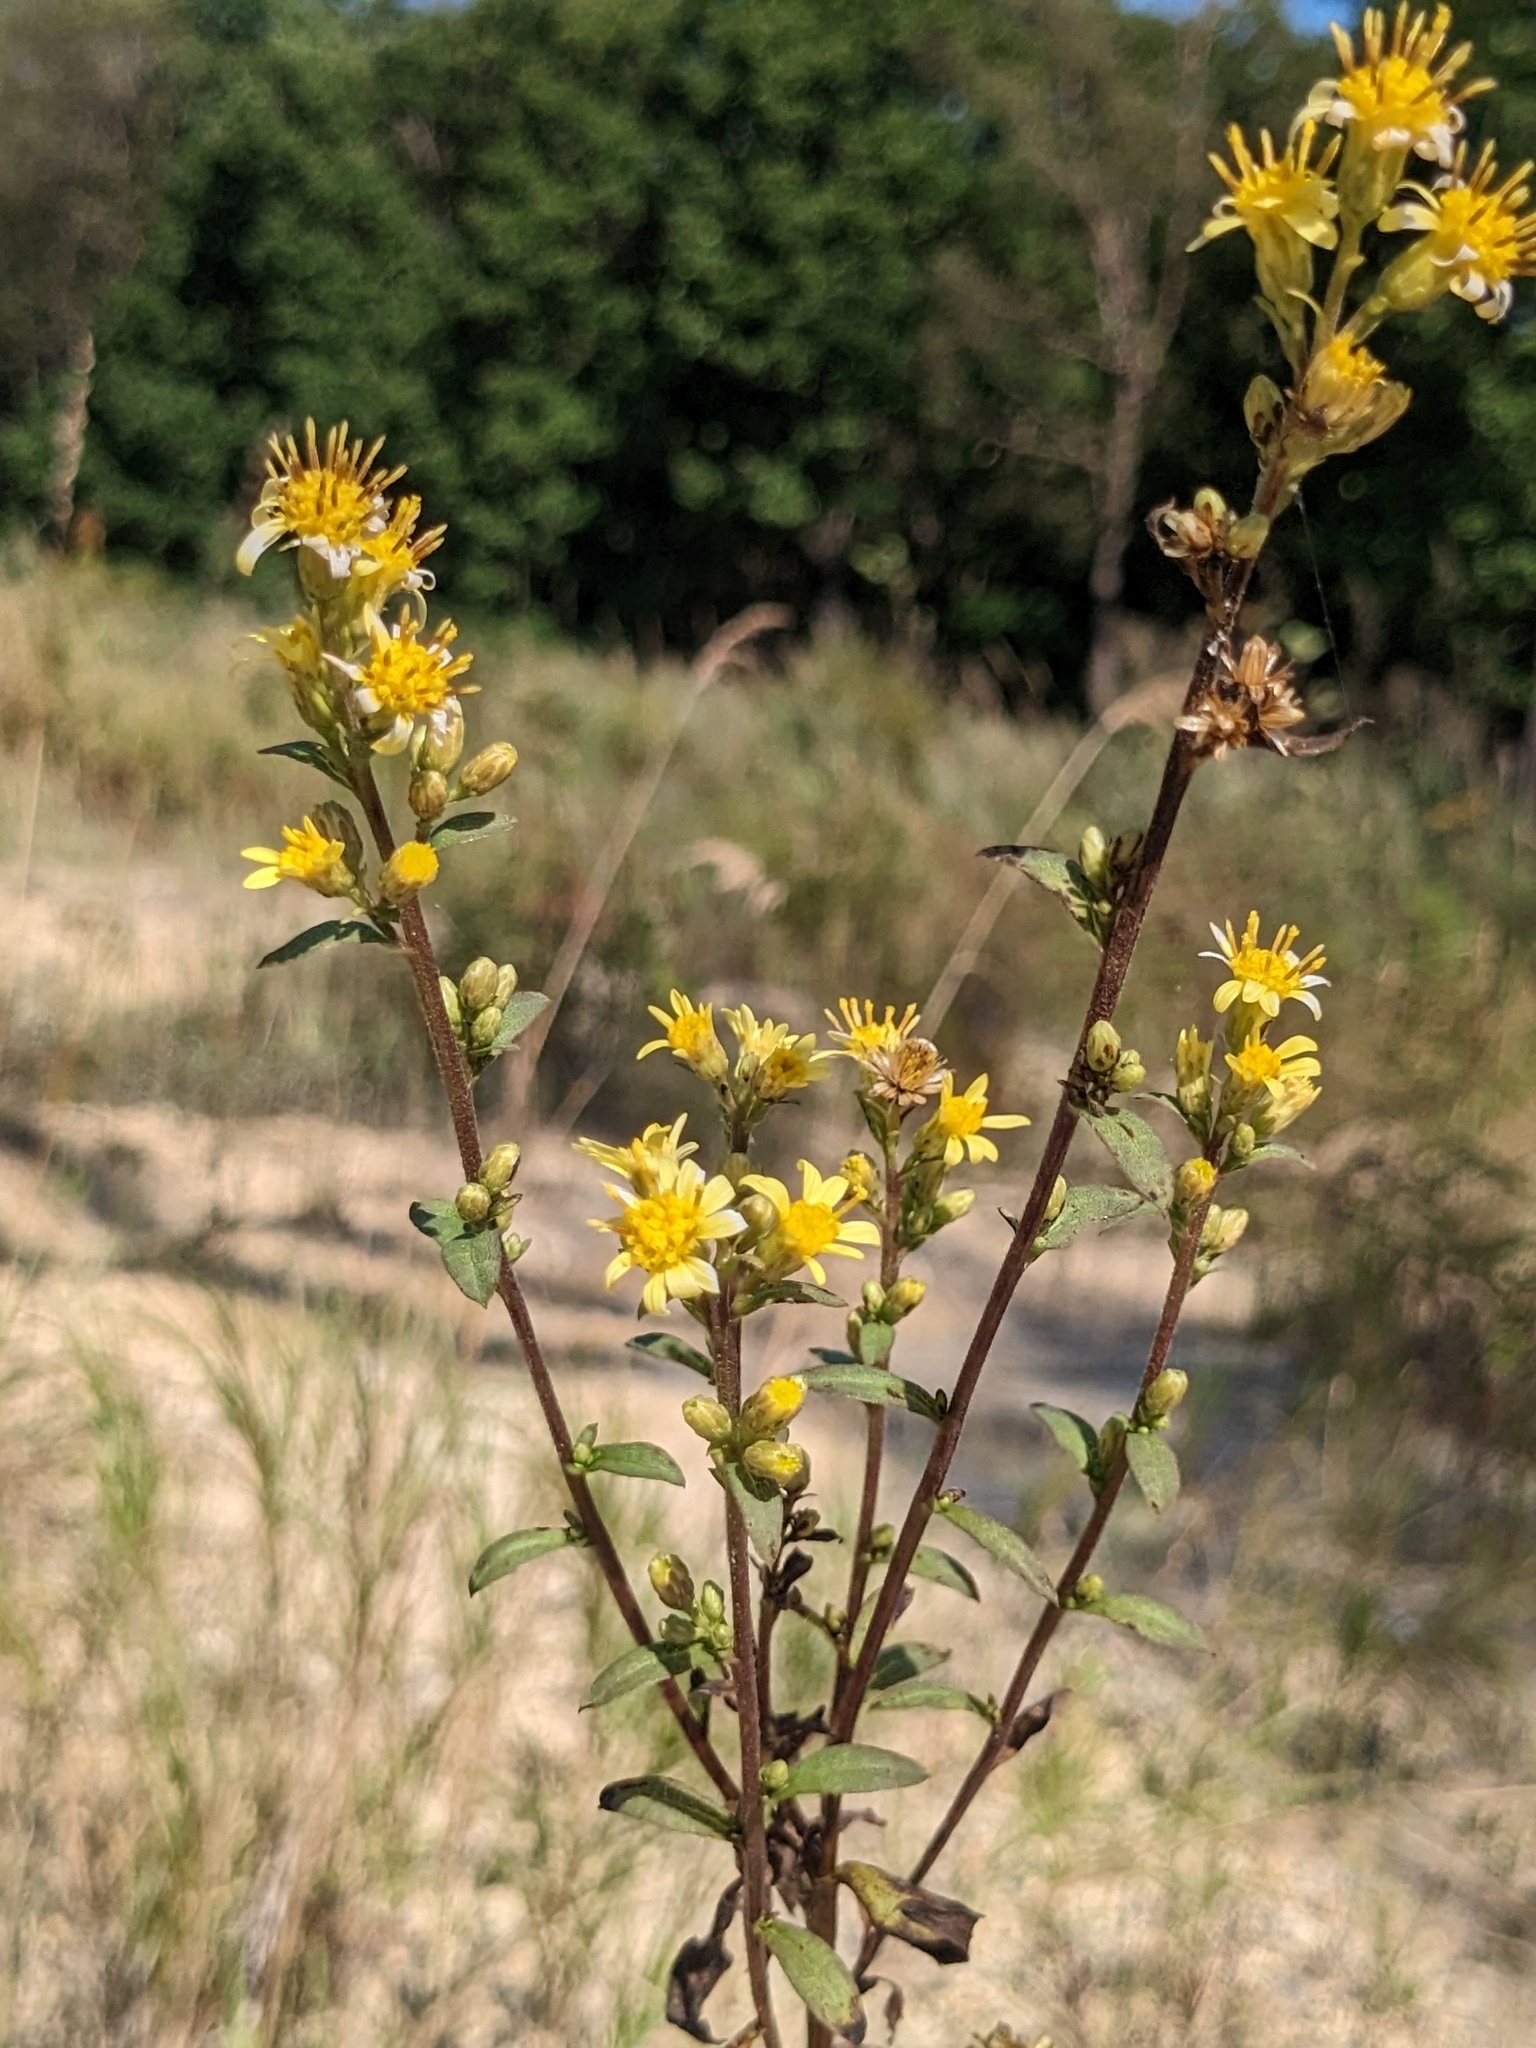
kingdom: Plantae
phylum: Tracheophyta
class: Magnoliopsida
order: Asterales
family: Asteraceae
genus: Solidago
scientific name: Solidago decurrens
